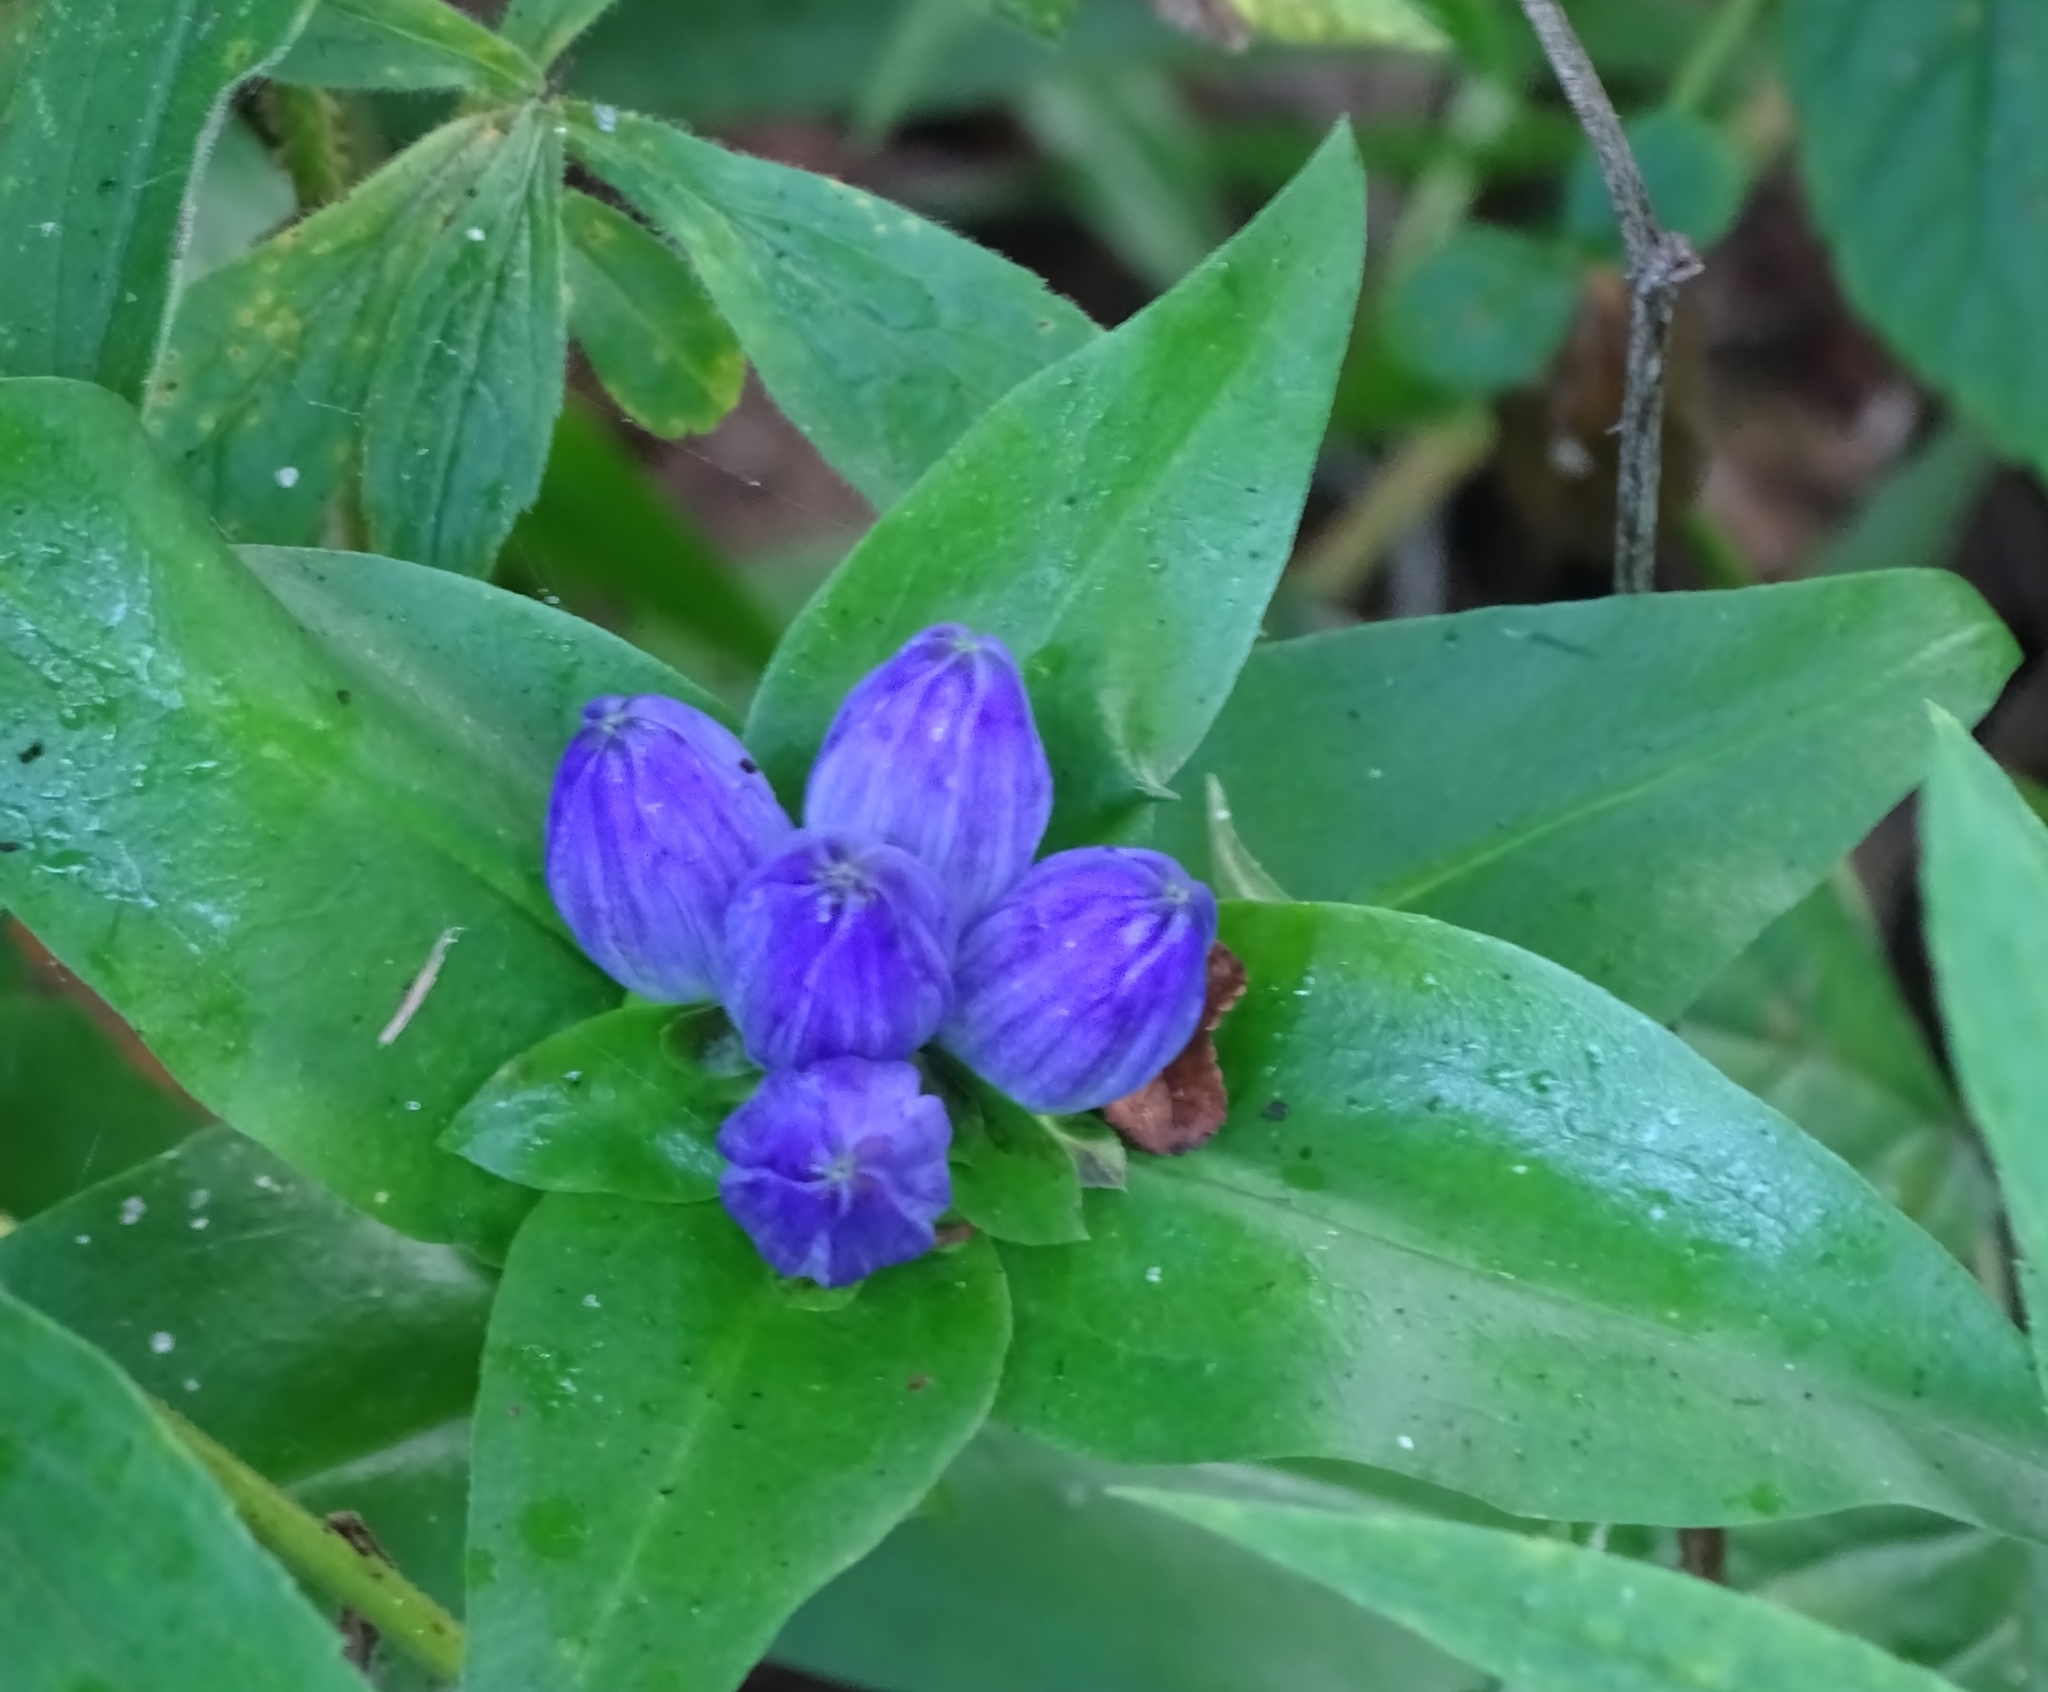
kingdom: Plantae
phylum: Tracheophyta
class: Magnoliopsida
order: Gentianales
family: Gentianaceae
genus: Gentiana
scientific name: Gentiana clausa
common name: Blind gentian
